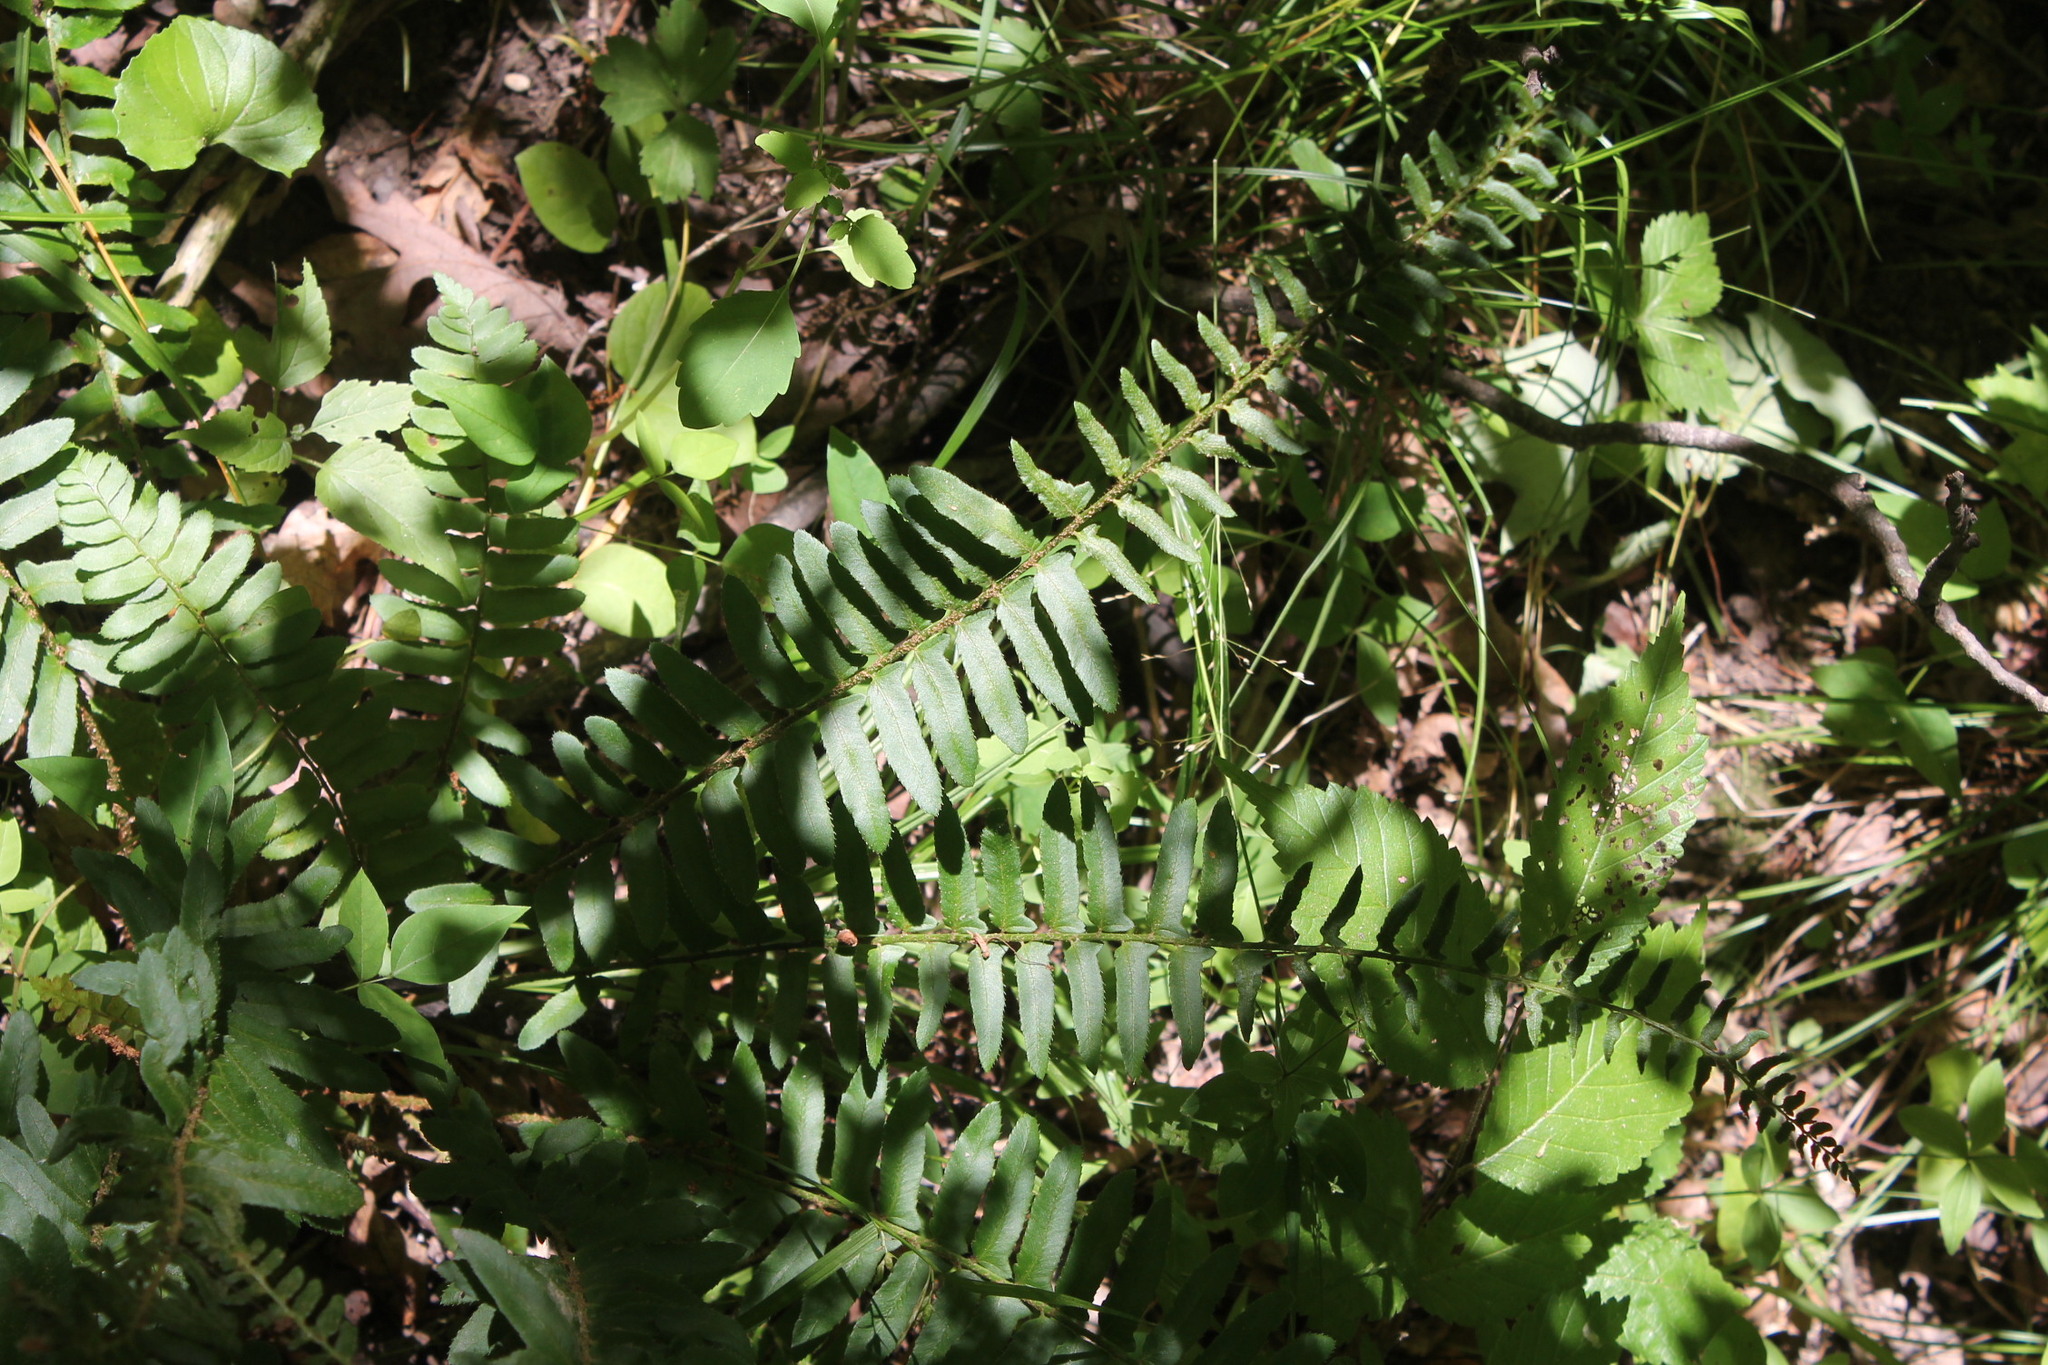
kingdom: Plantae
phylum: Tracheophyta
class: Polypodiopsida
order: Polypodiales
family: Dryopteridaceae
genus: Polystichum
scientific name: Polystichum acrostichoides
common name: Christmas fern
